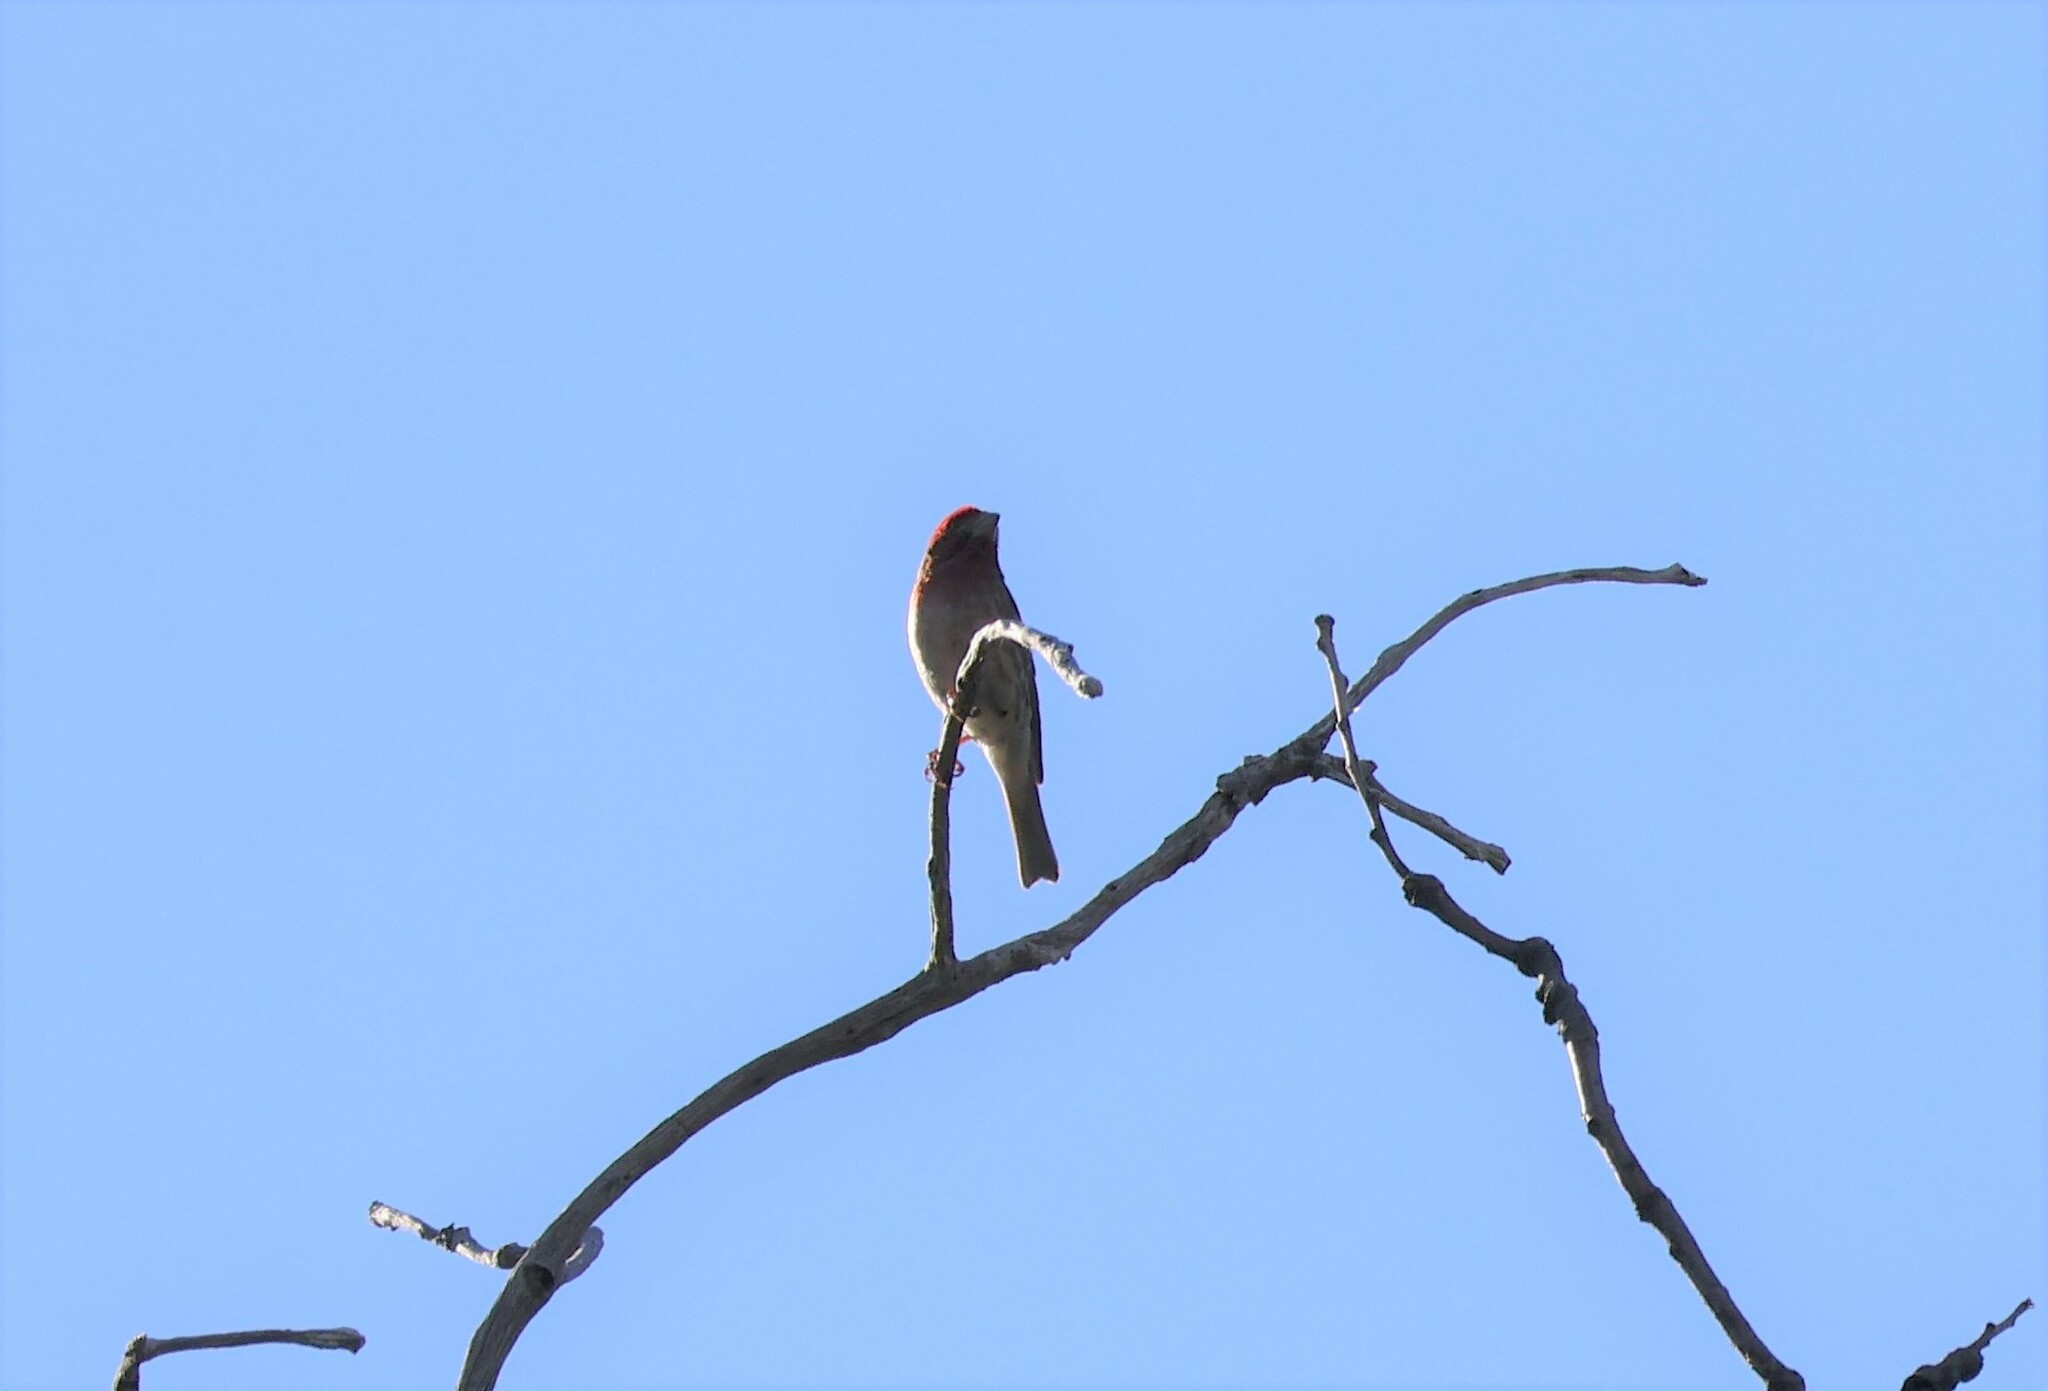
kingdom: Animalia
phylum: Chordata
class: Aves
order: Passeriformes
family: Fringillidae
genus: Haemorhous
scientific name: Haemorhous mexicanus
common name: House finch
